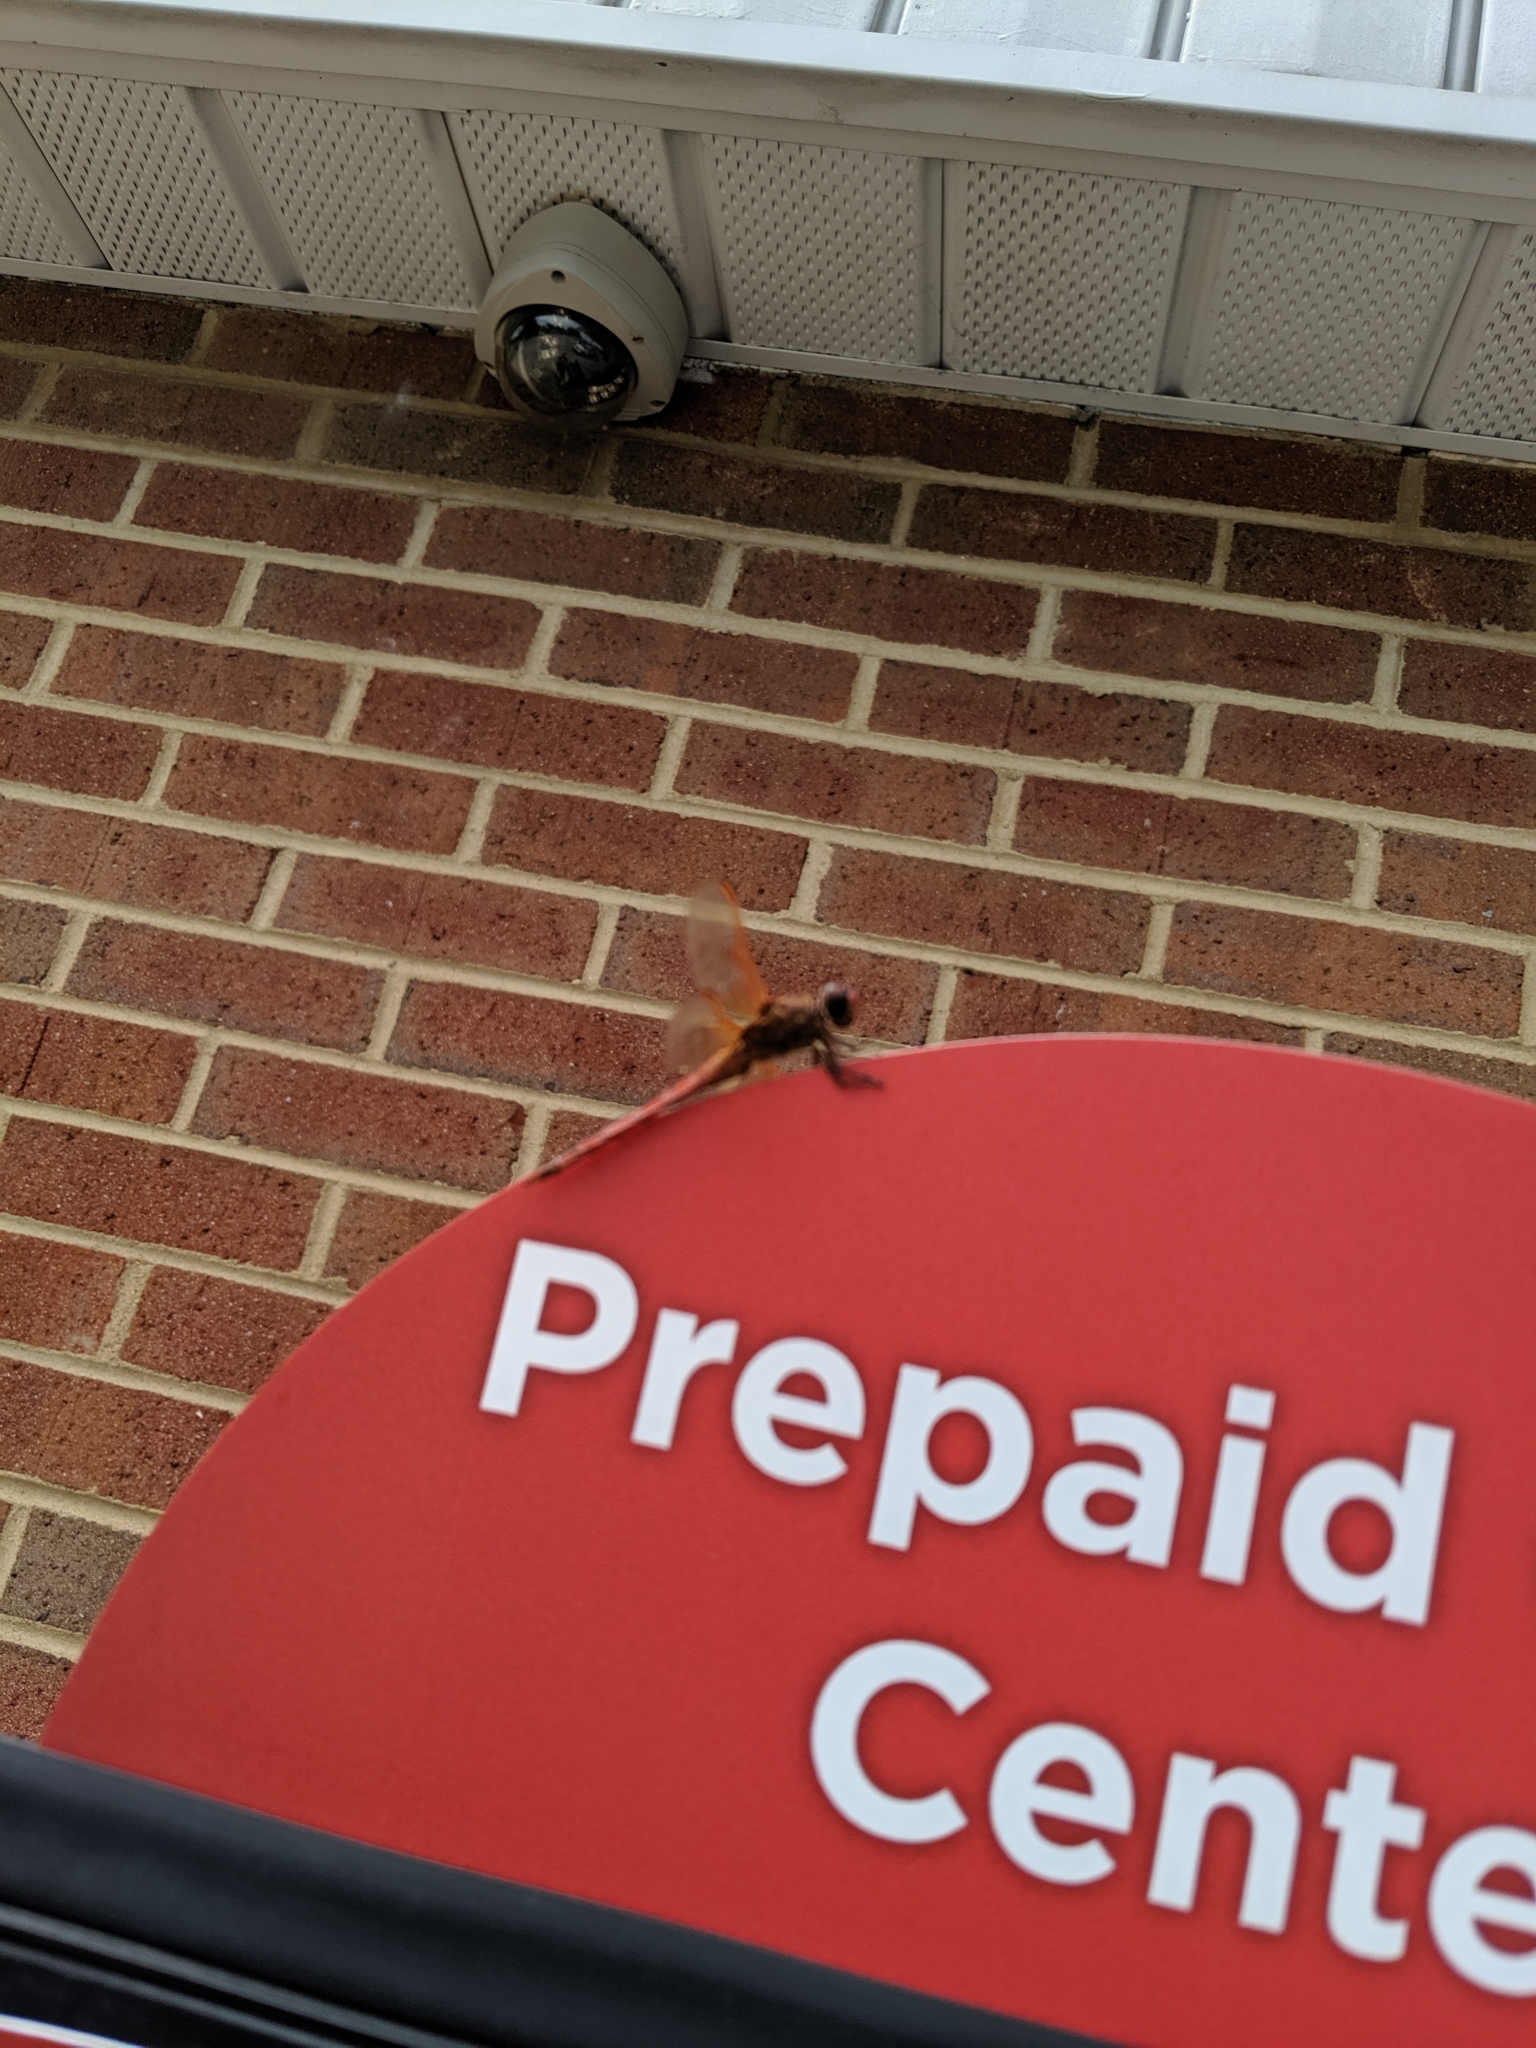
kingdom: Animalia
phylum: Arthropoda
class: Insecta
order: Odonata
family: Libellulidae
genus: Libellula
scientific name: Libellula needhami
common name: Needham's skimmer
